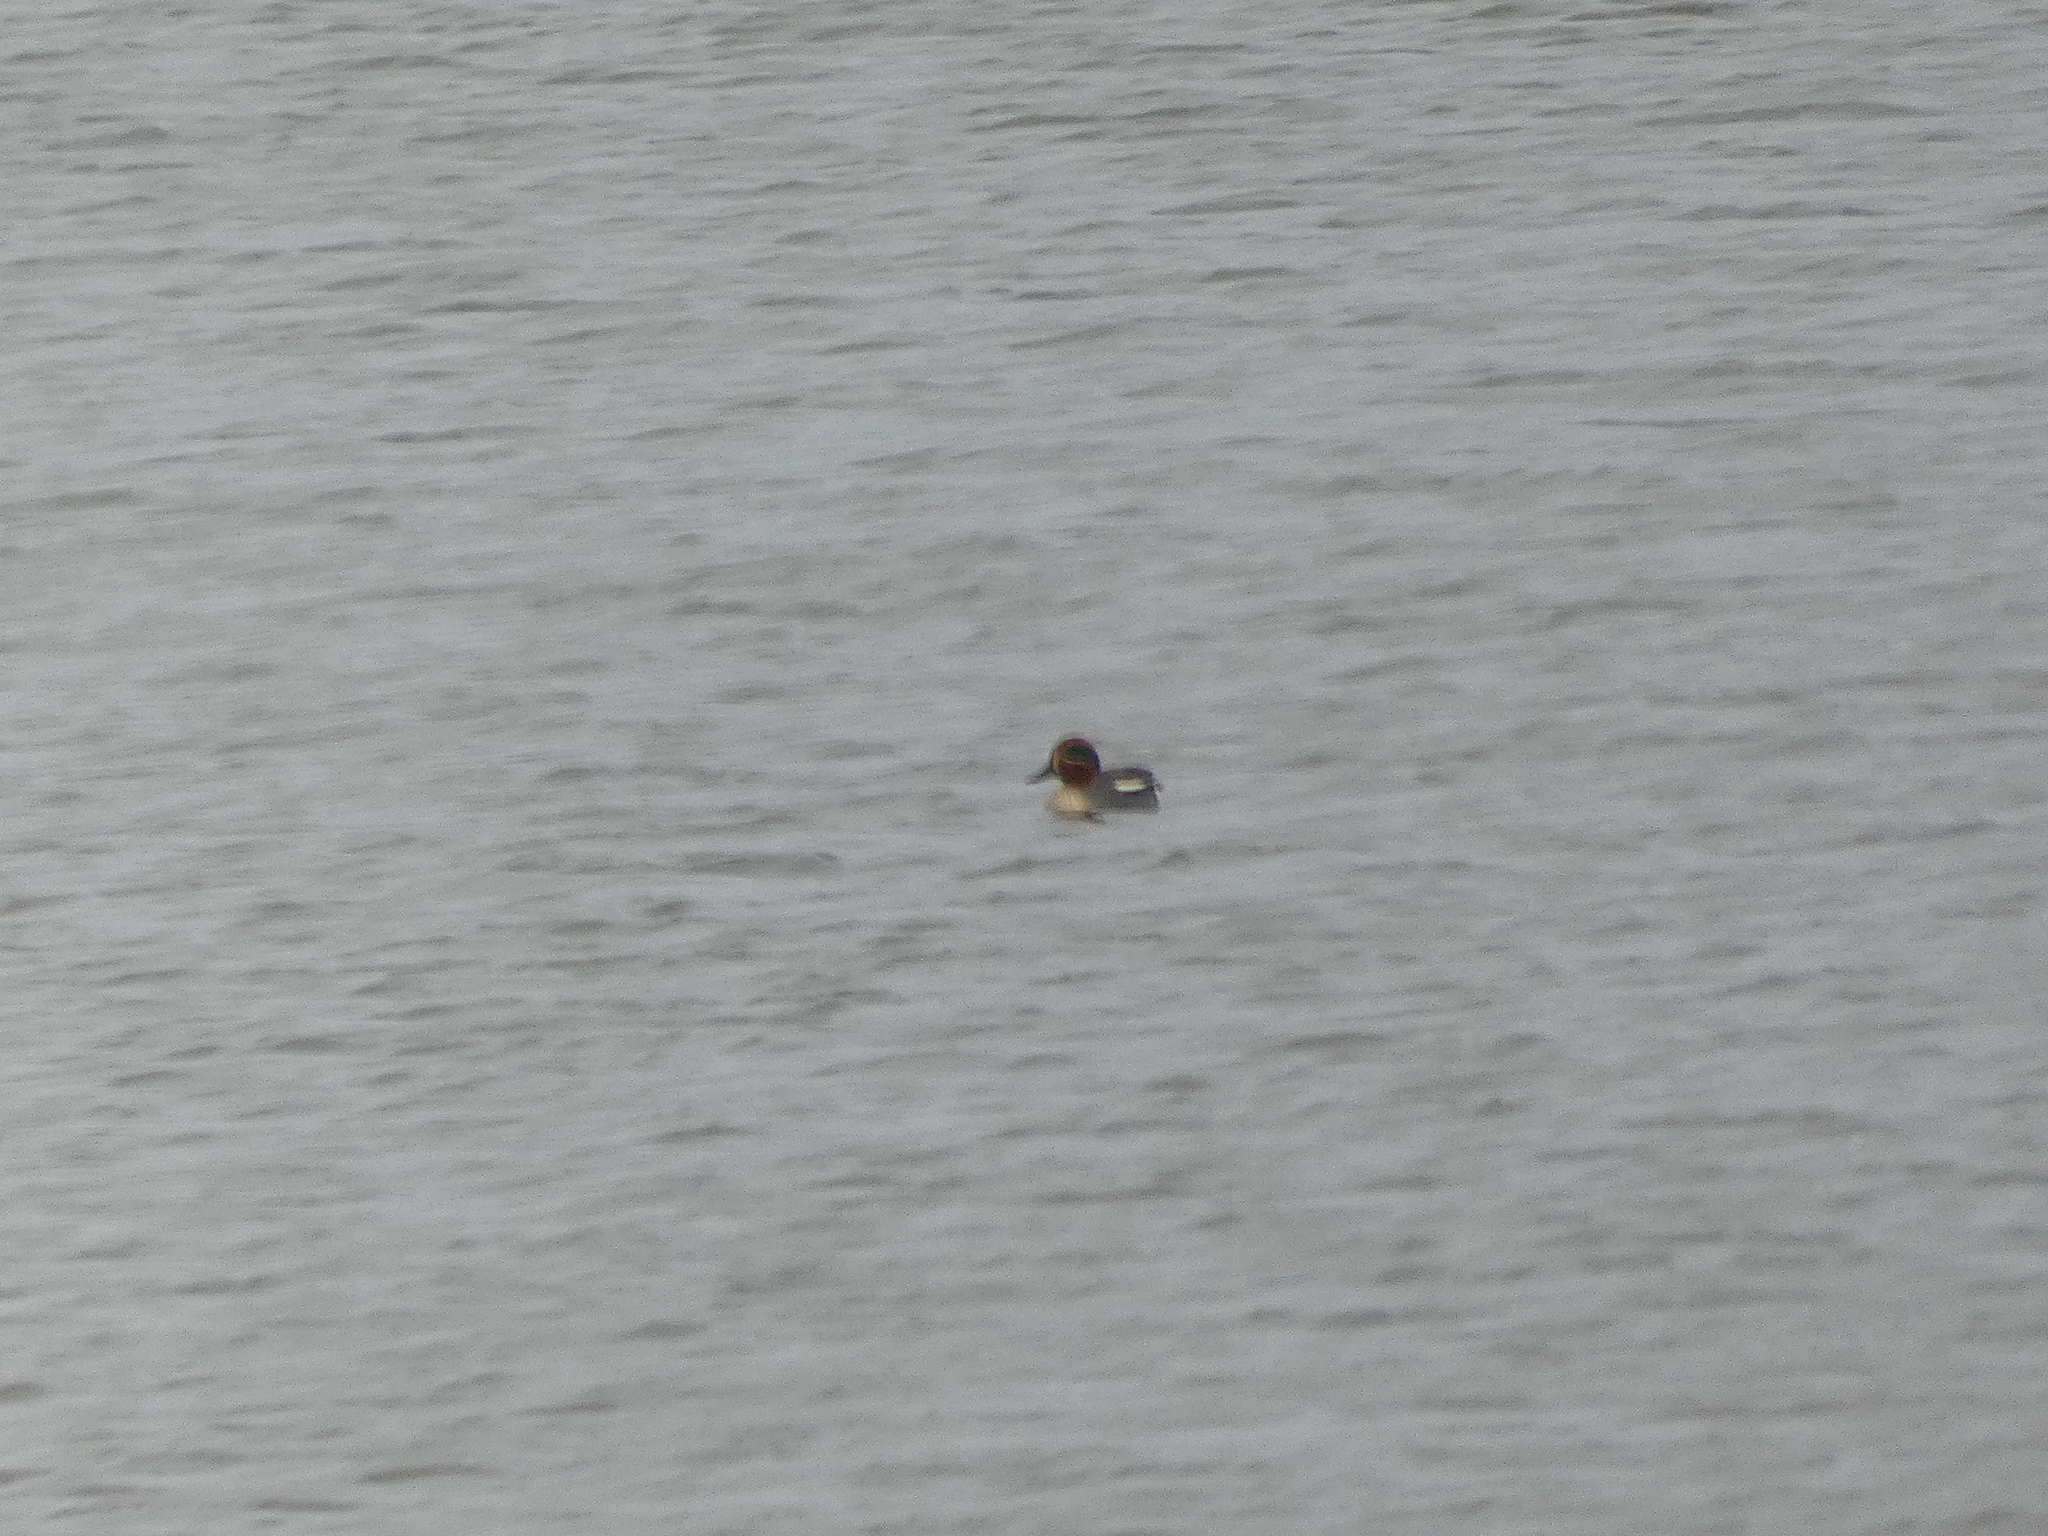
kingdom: Animalia
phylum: Chordata
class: Aves
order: Anseriformes
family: Anatidae
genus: Anas
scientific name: Anas crecca
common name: Eurasian teal
